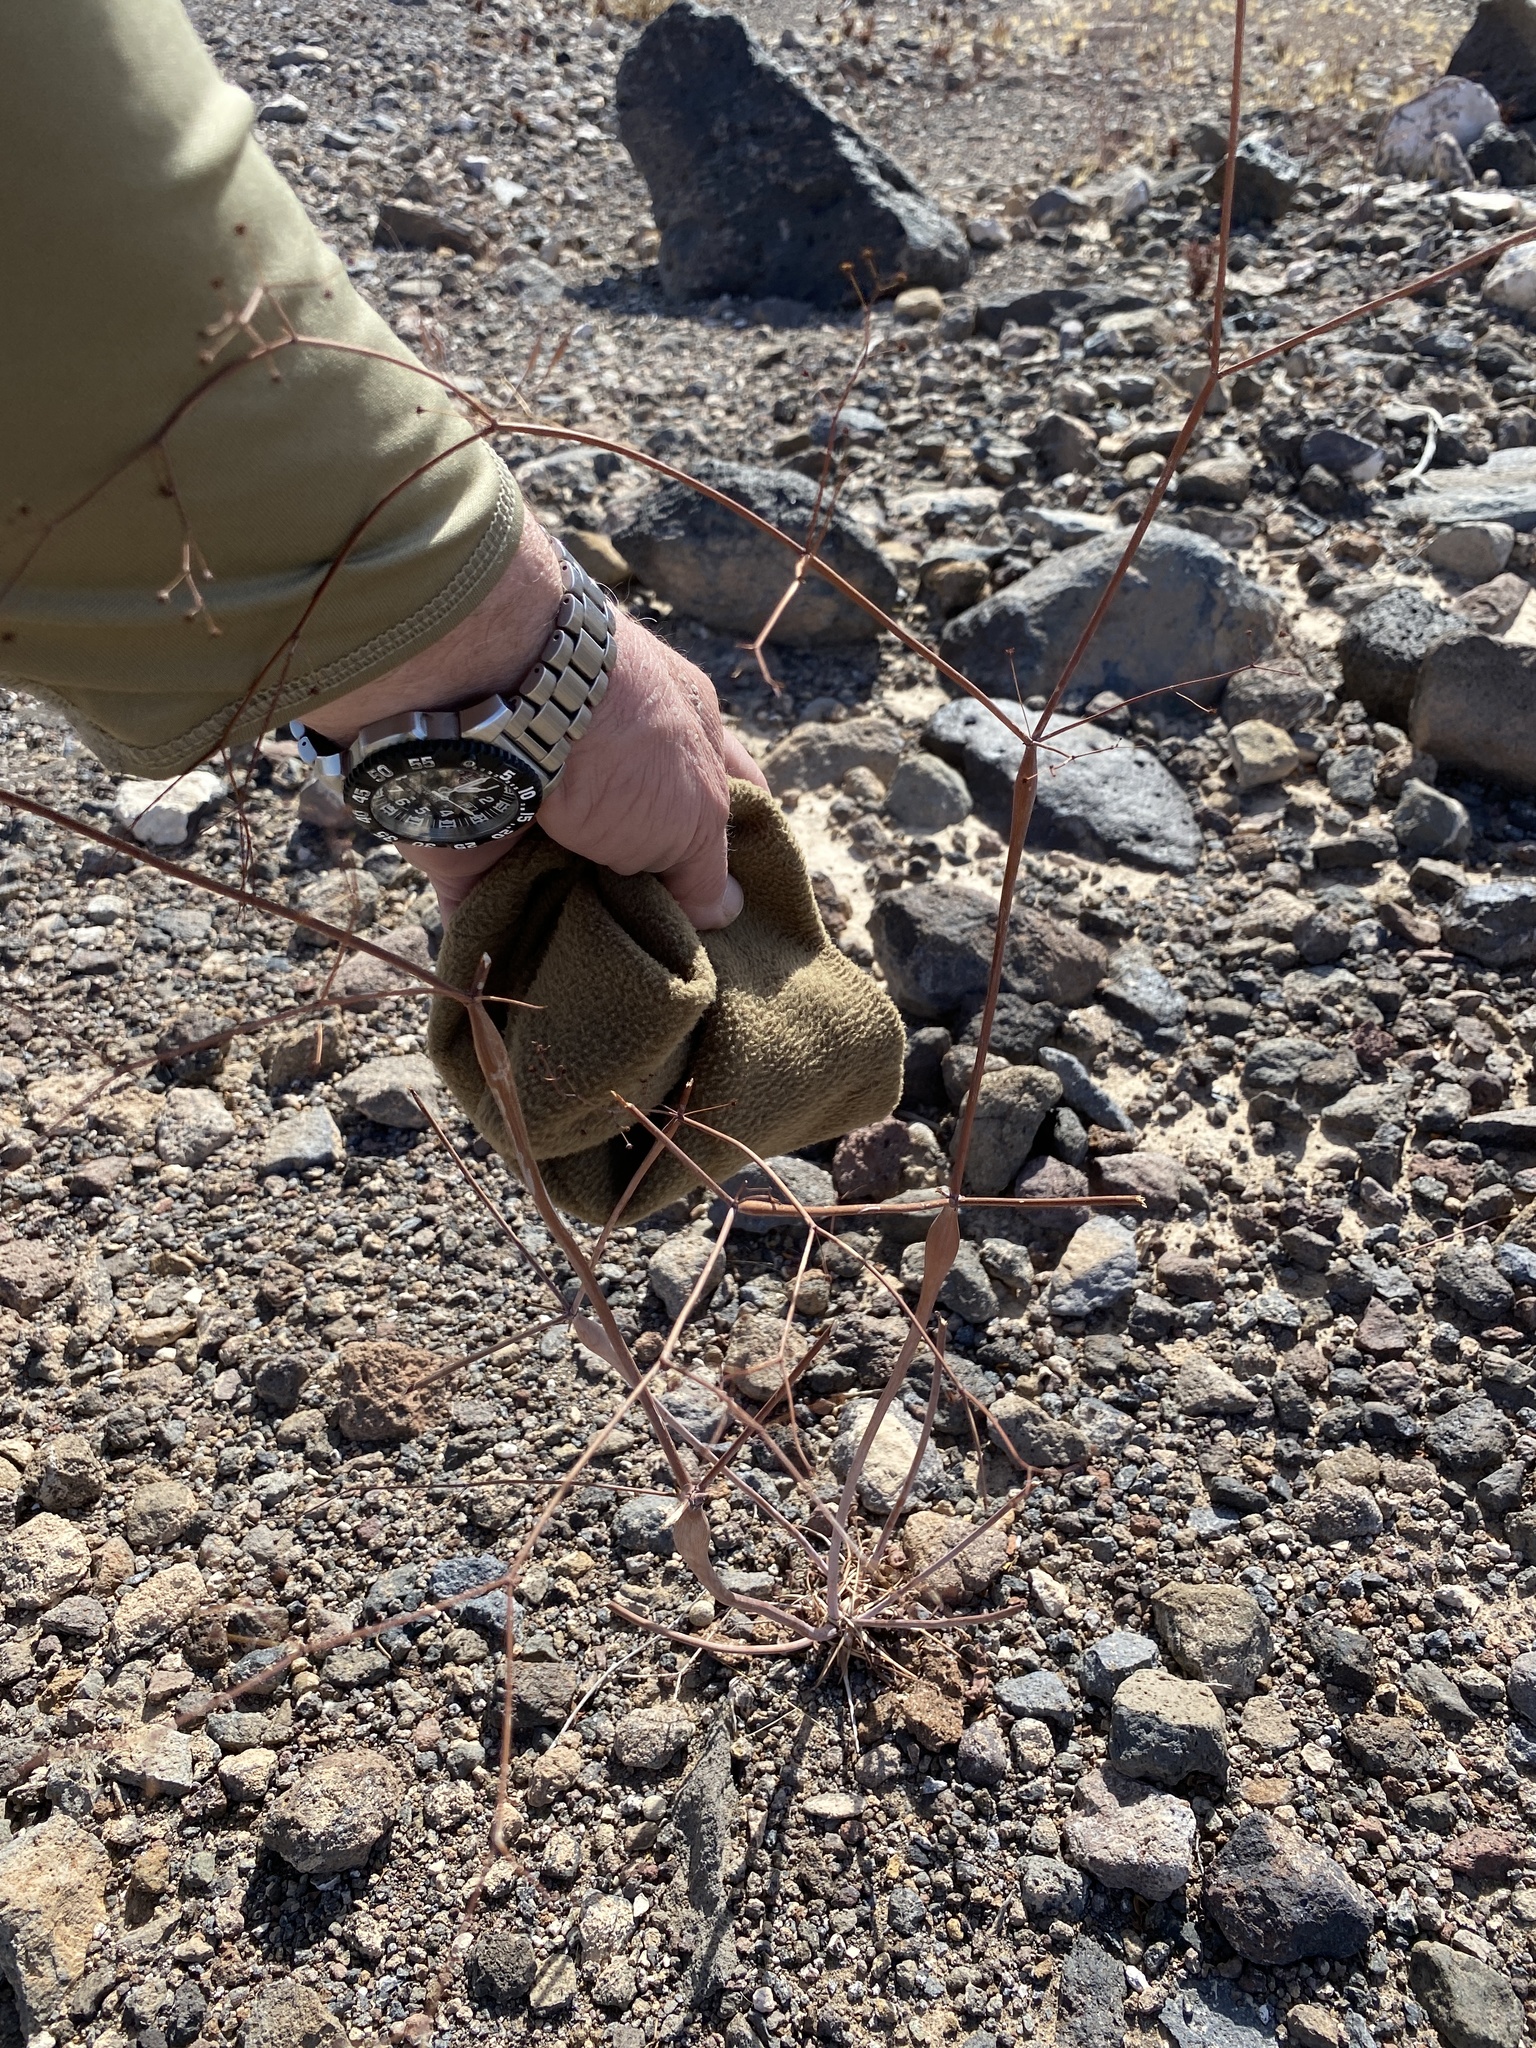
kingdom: Plantae
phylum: Tracheophyta
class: Magnoliopsida
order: Caryophyllales
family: Polygonaceae
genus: Eriogonum
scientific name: Eriogonum inflatum
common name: Desert trumpet
